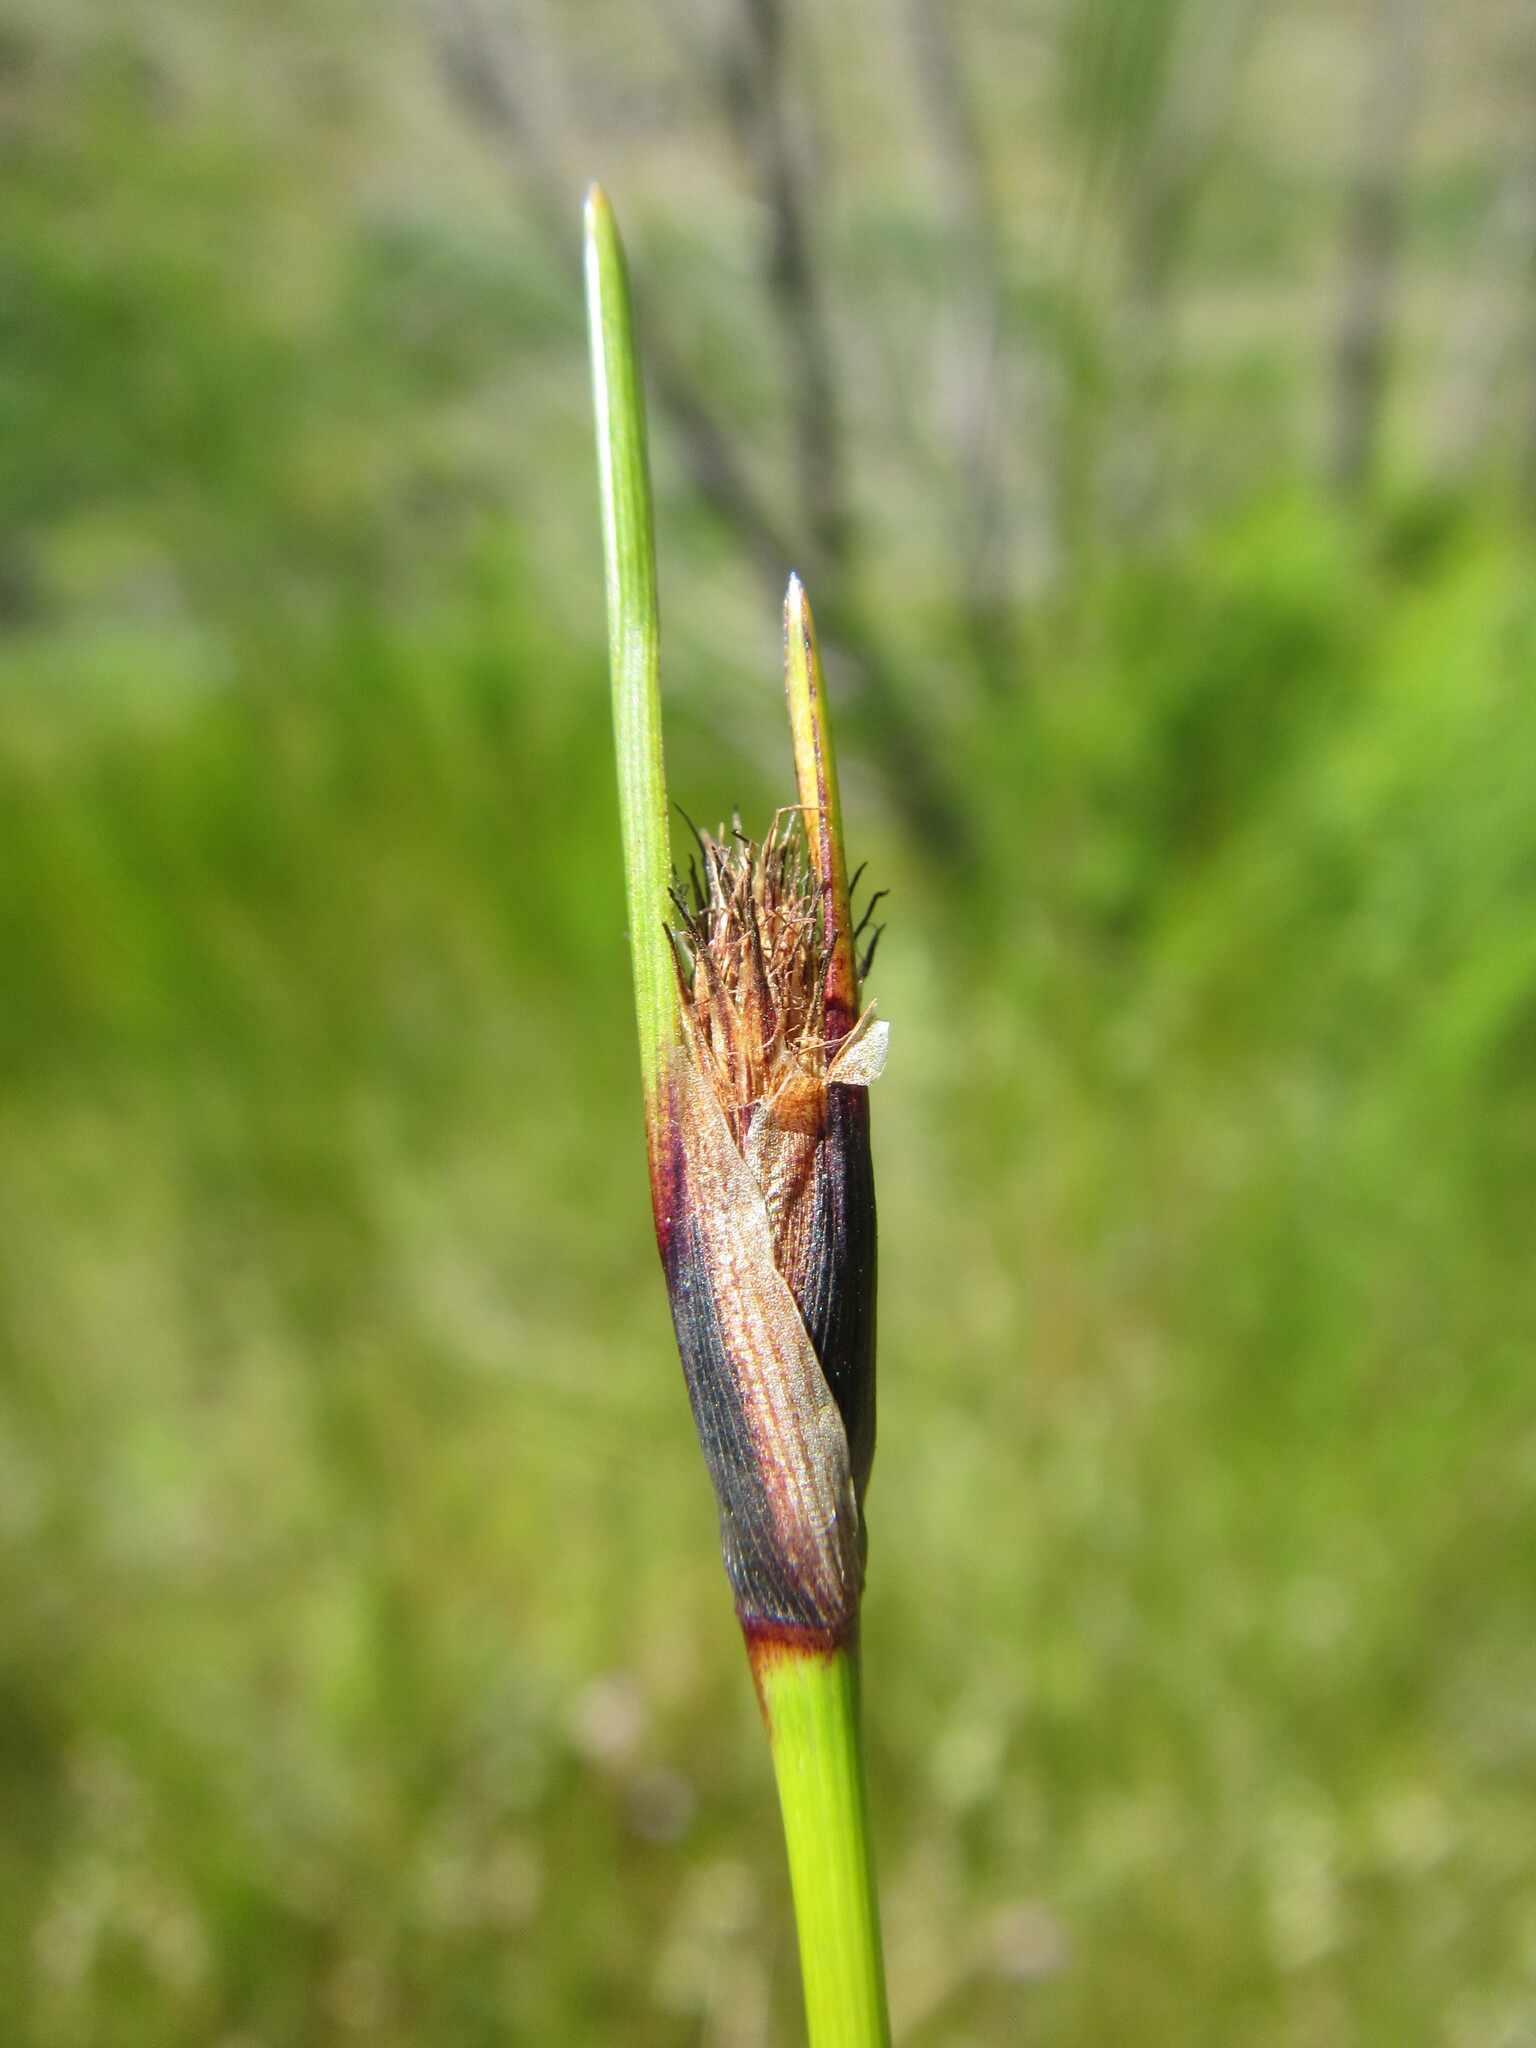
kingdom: Plantae
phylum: Tracheophyta
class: Liliopsida
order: Poales
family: Cyperaceae
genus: Ficinia
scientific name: Ficinia ixioides
